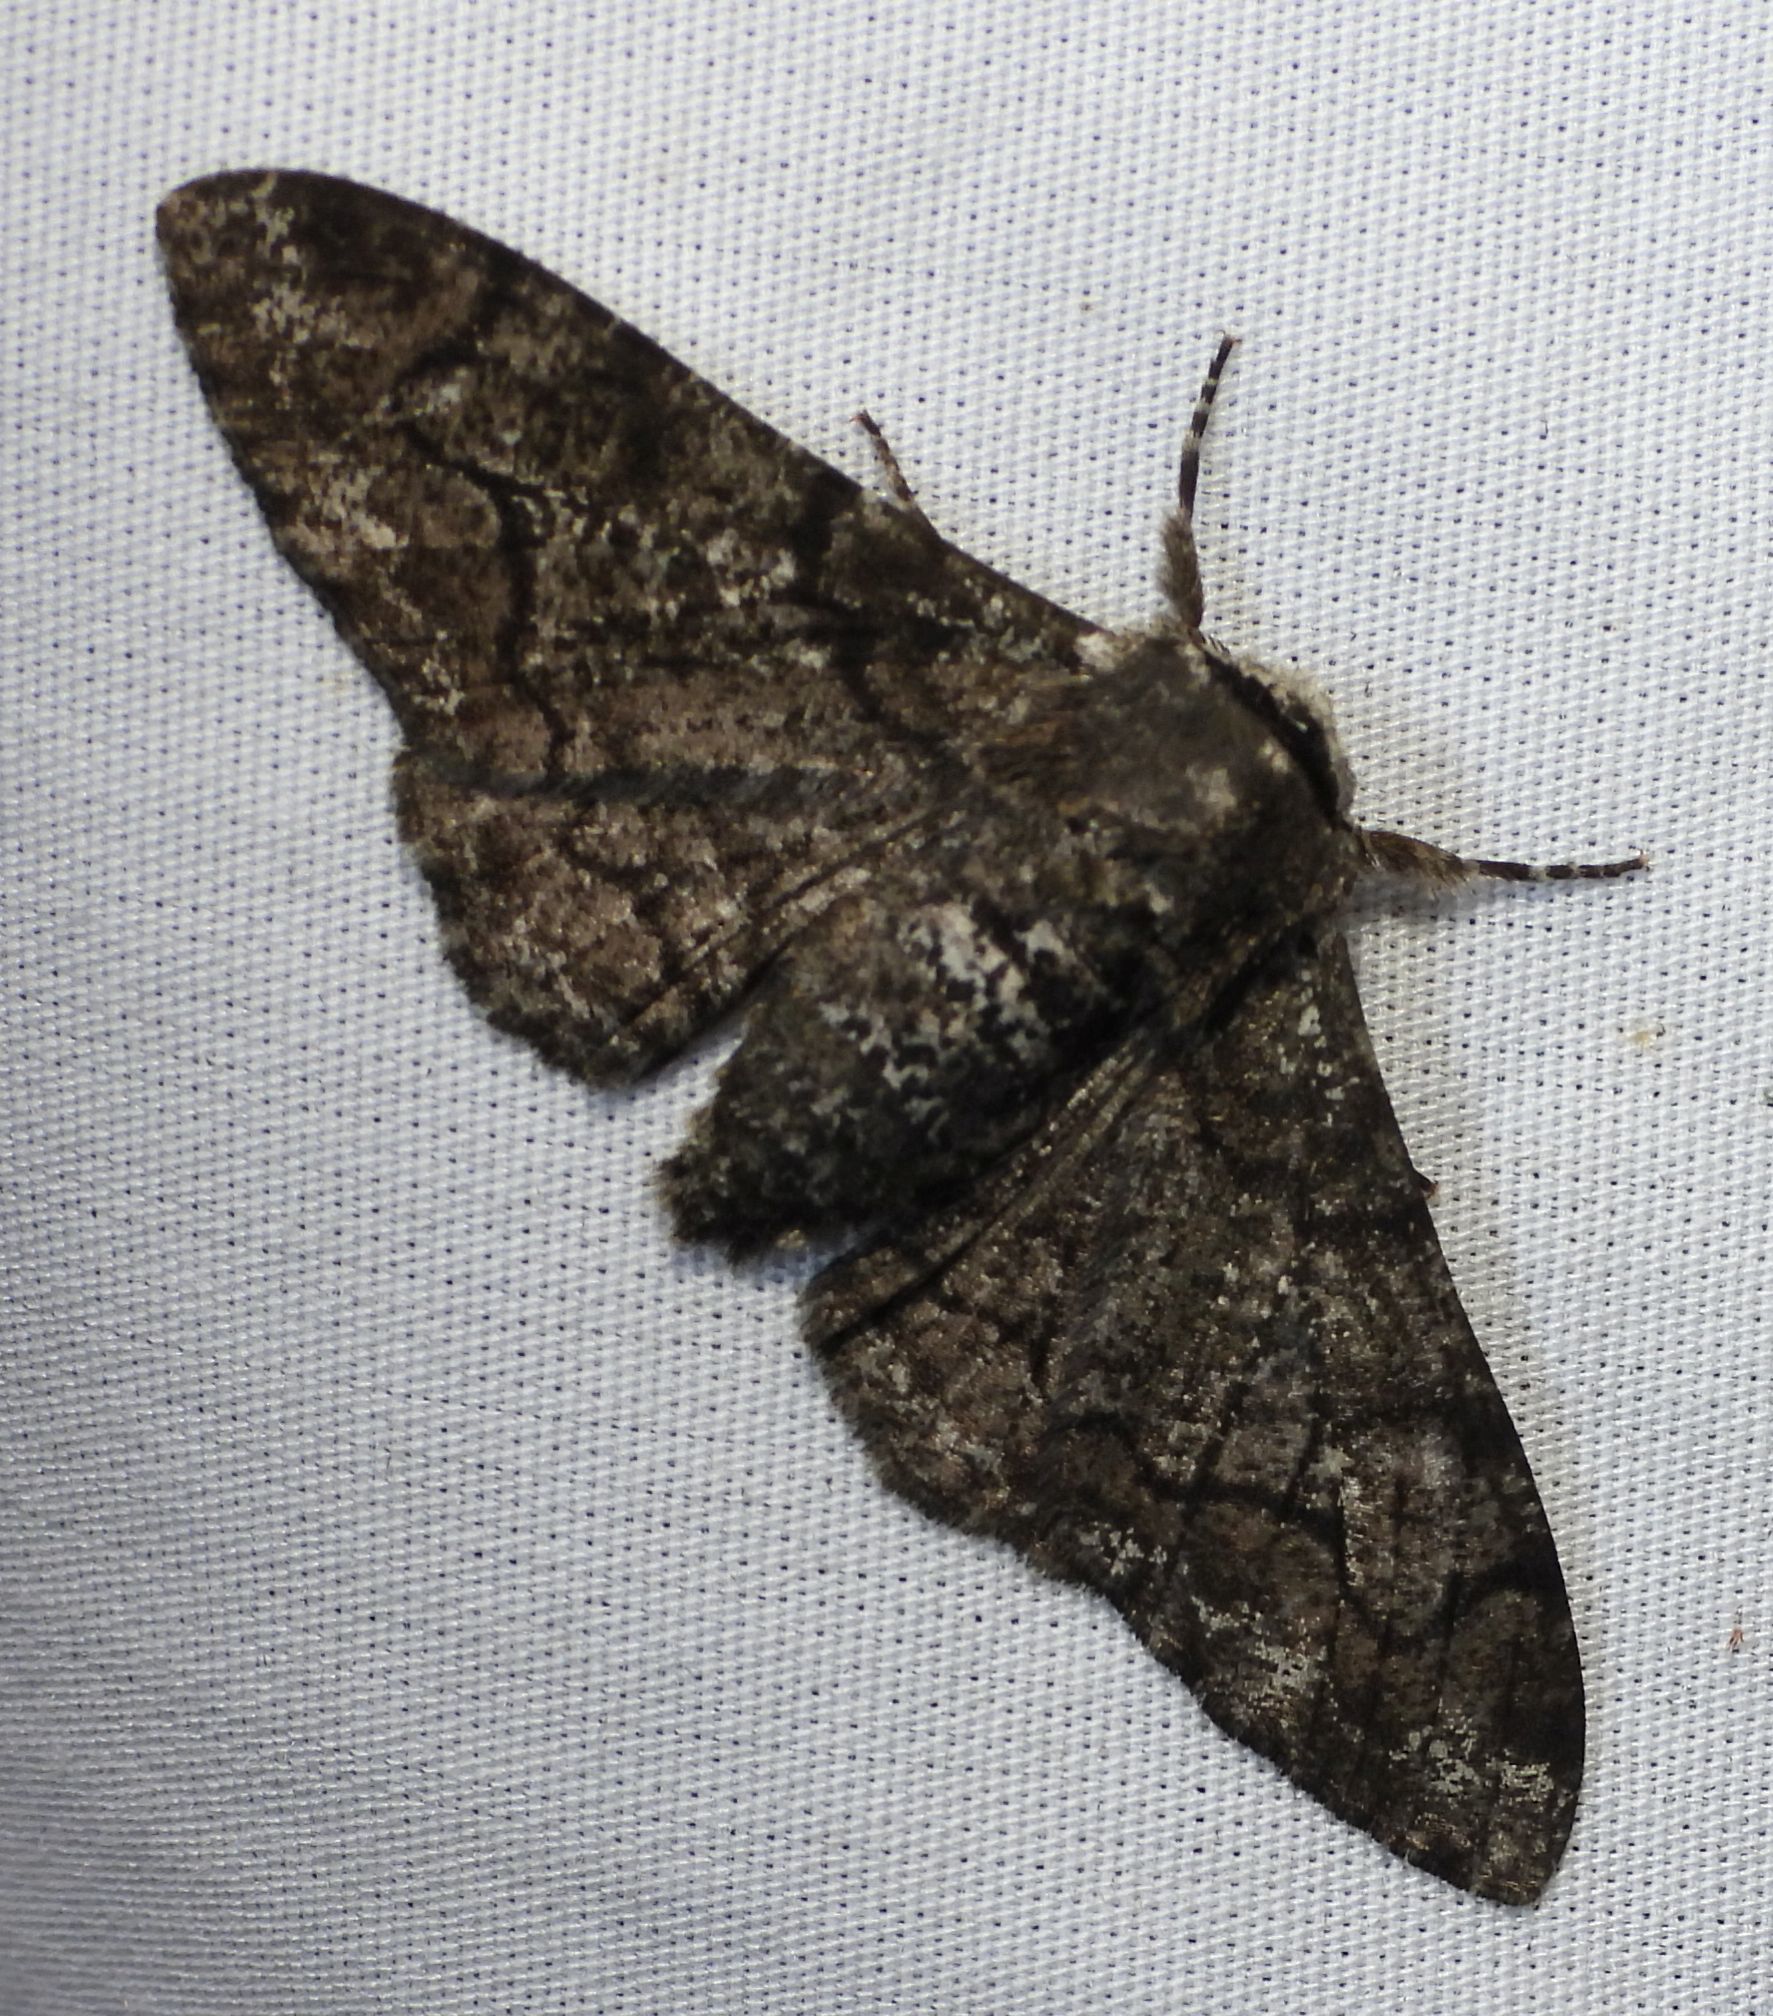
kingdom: Animalia
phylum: Arthropoda
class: Insecta
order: Lepidoptera
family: Geometridae
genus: Biston
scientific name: Biston betularia
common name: Peppered moth
